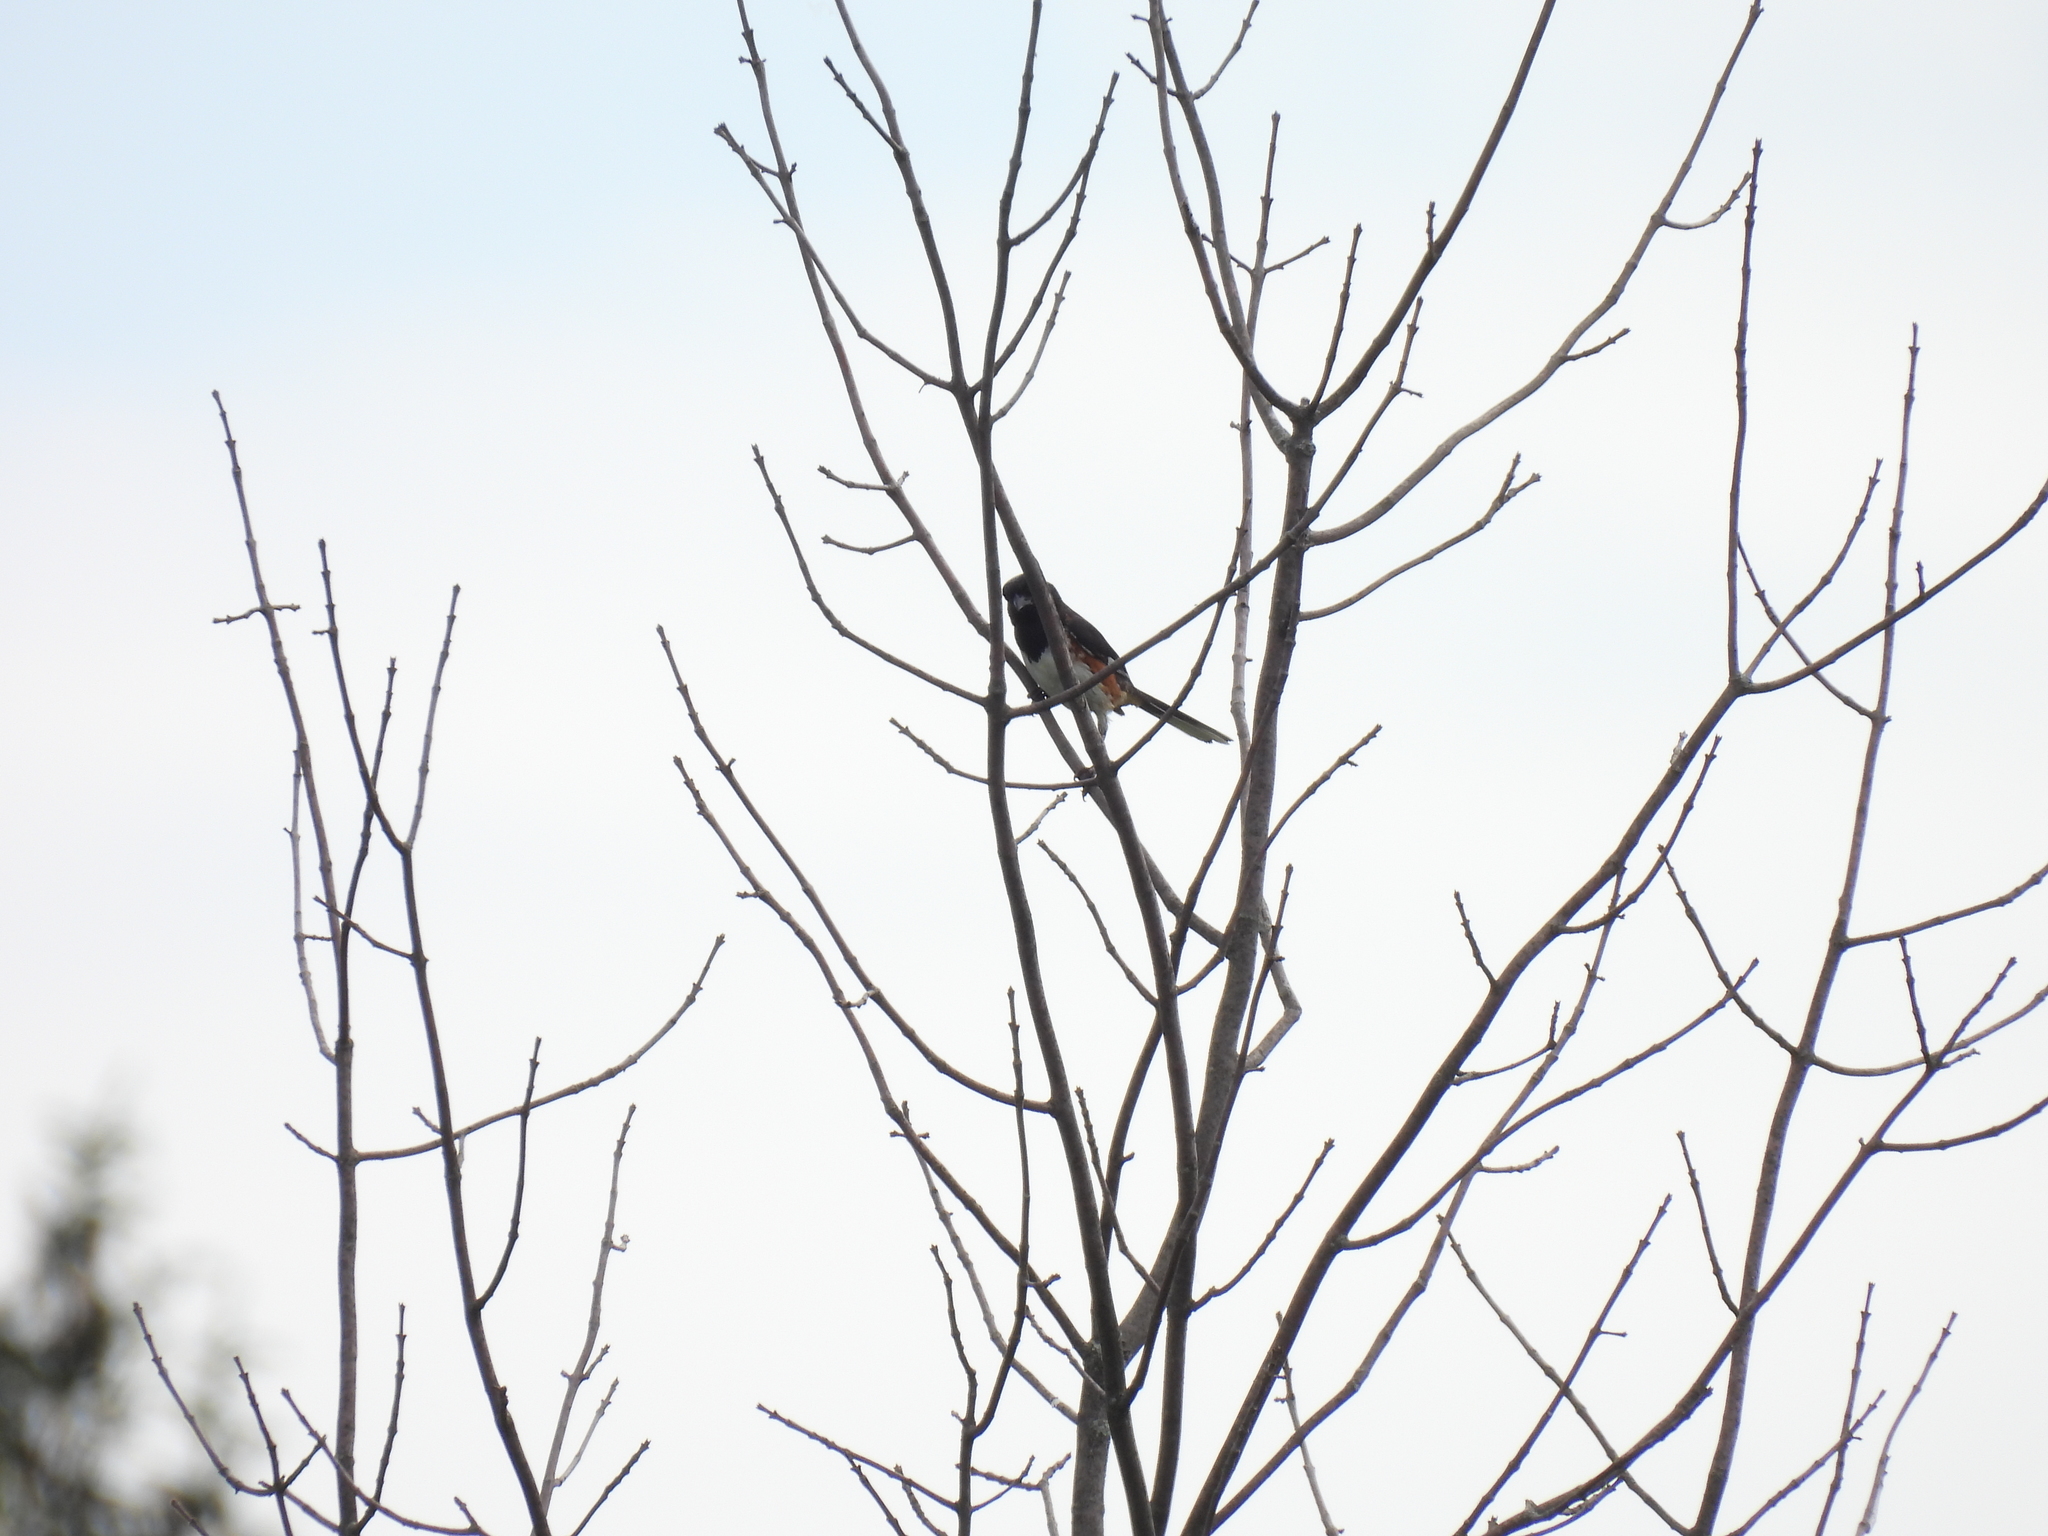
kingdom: Animalia
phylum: Chordata
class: Aves
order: Passeriformes
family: Passerellidae
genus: Pipilo
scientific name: Pipilo erythrophthalmus
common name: Eastern towhee
